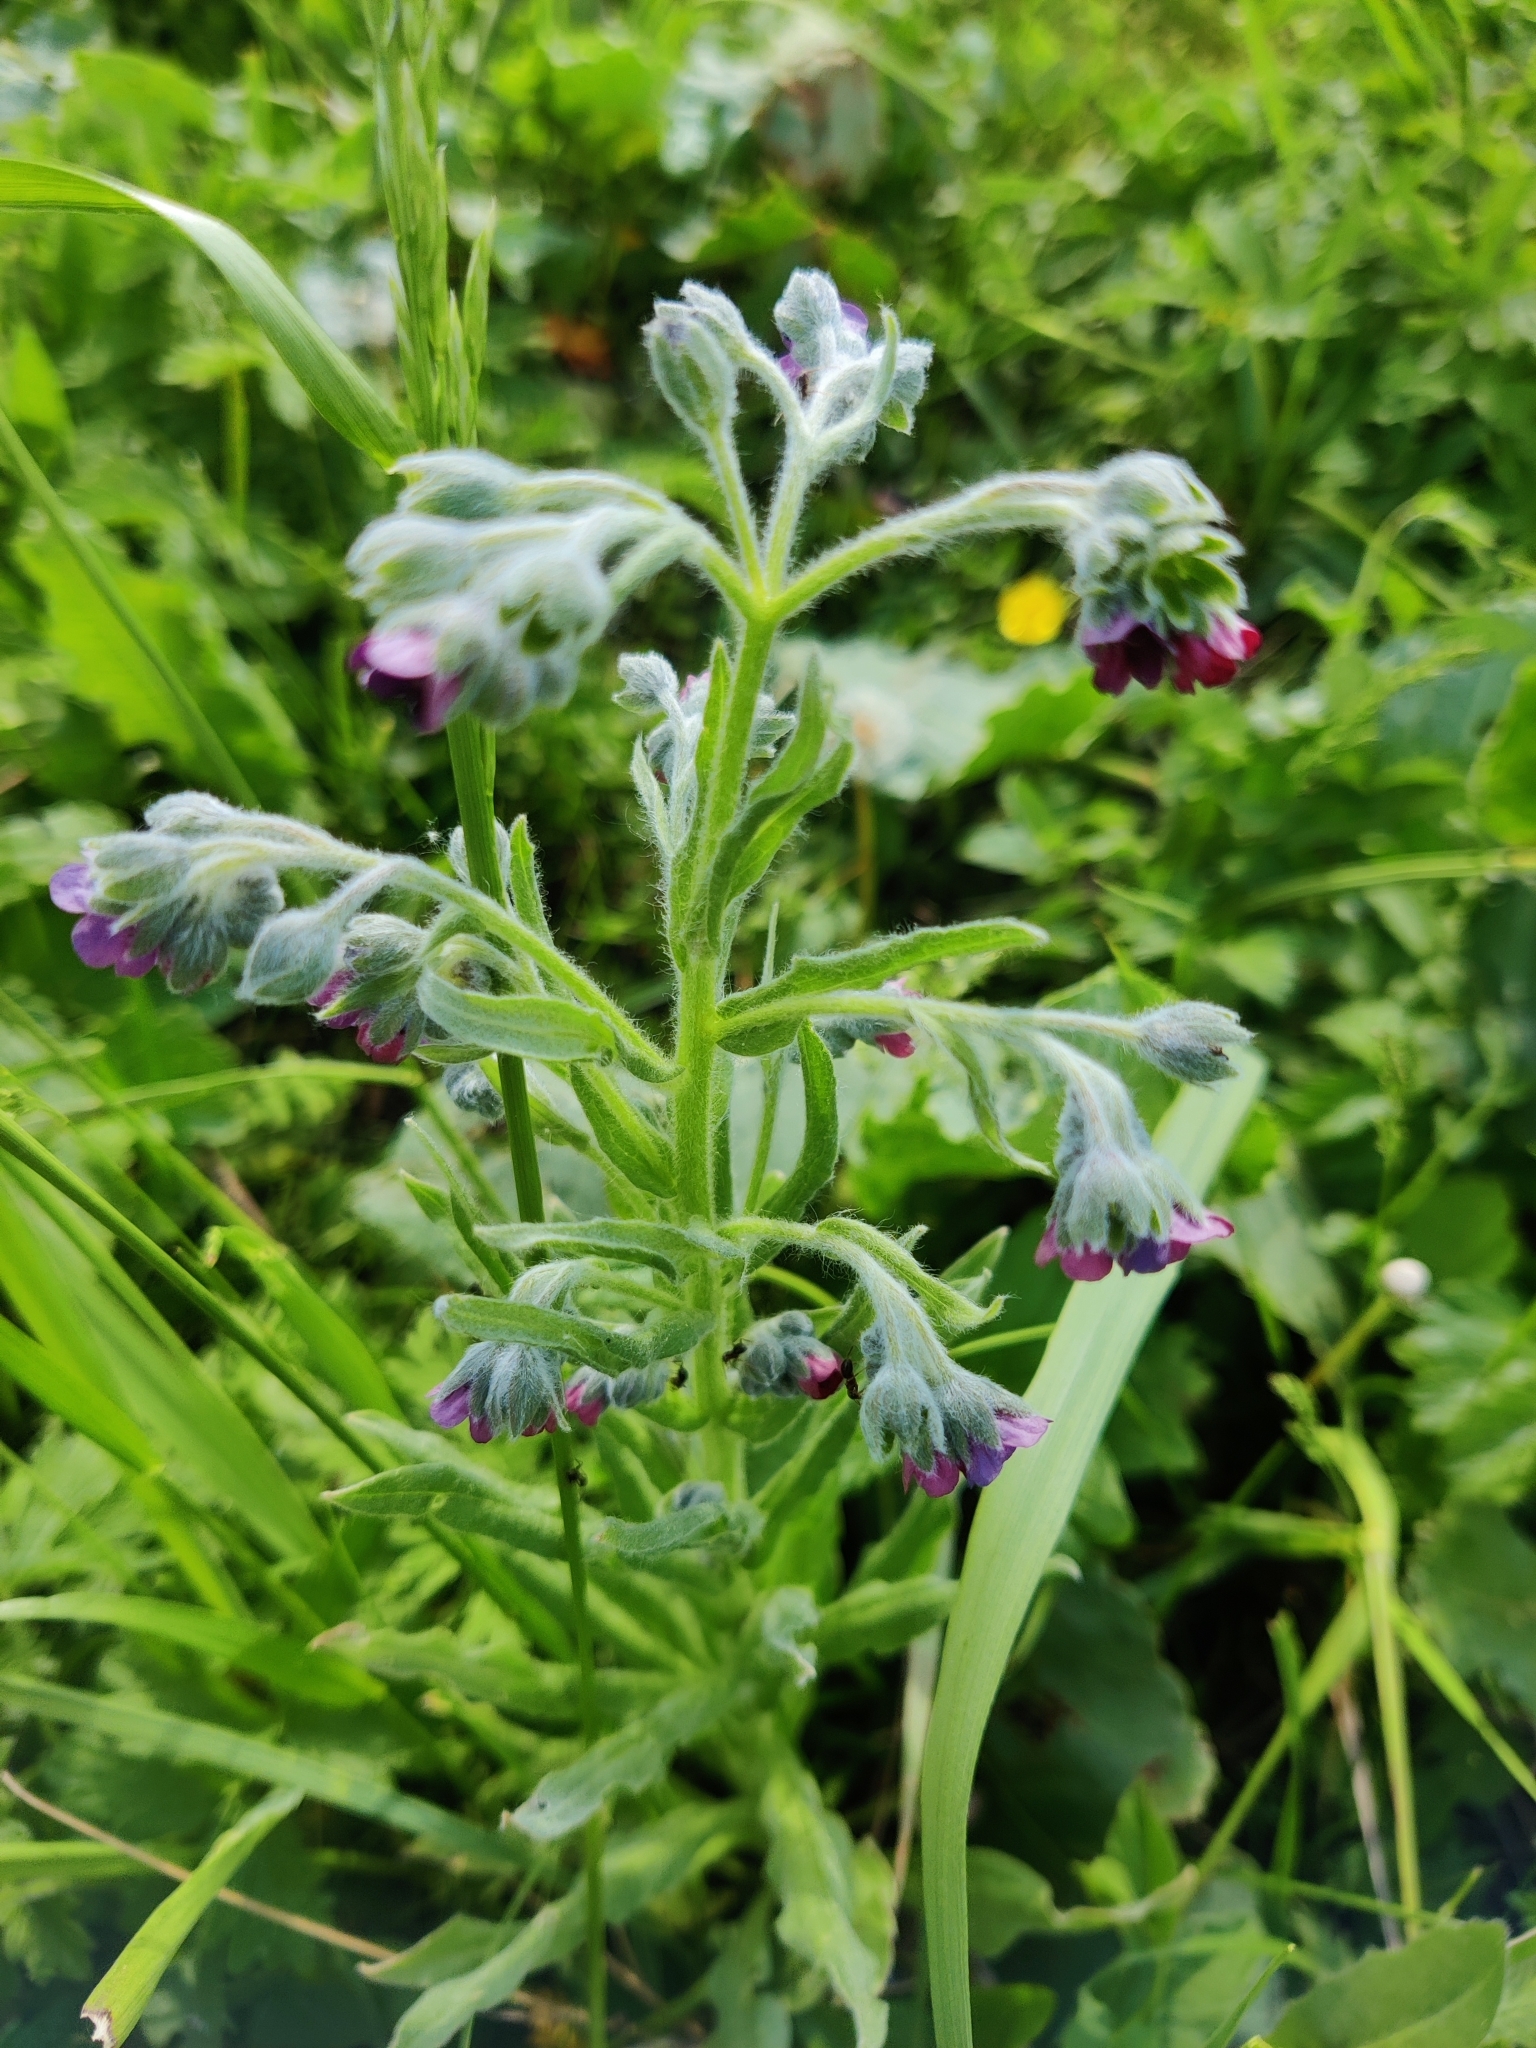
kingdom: Plantae
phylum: Tracheophyta
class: Magnoliopsida
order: Boraginales
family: Boraginaceae
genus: Cynoglossum
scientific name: Cynoglossum officinale
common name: Hound's-tongue
